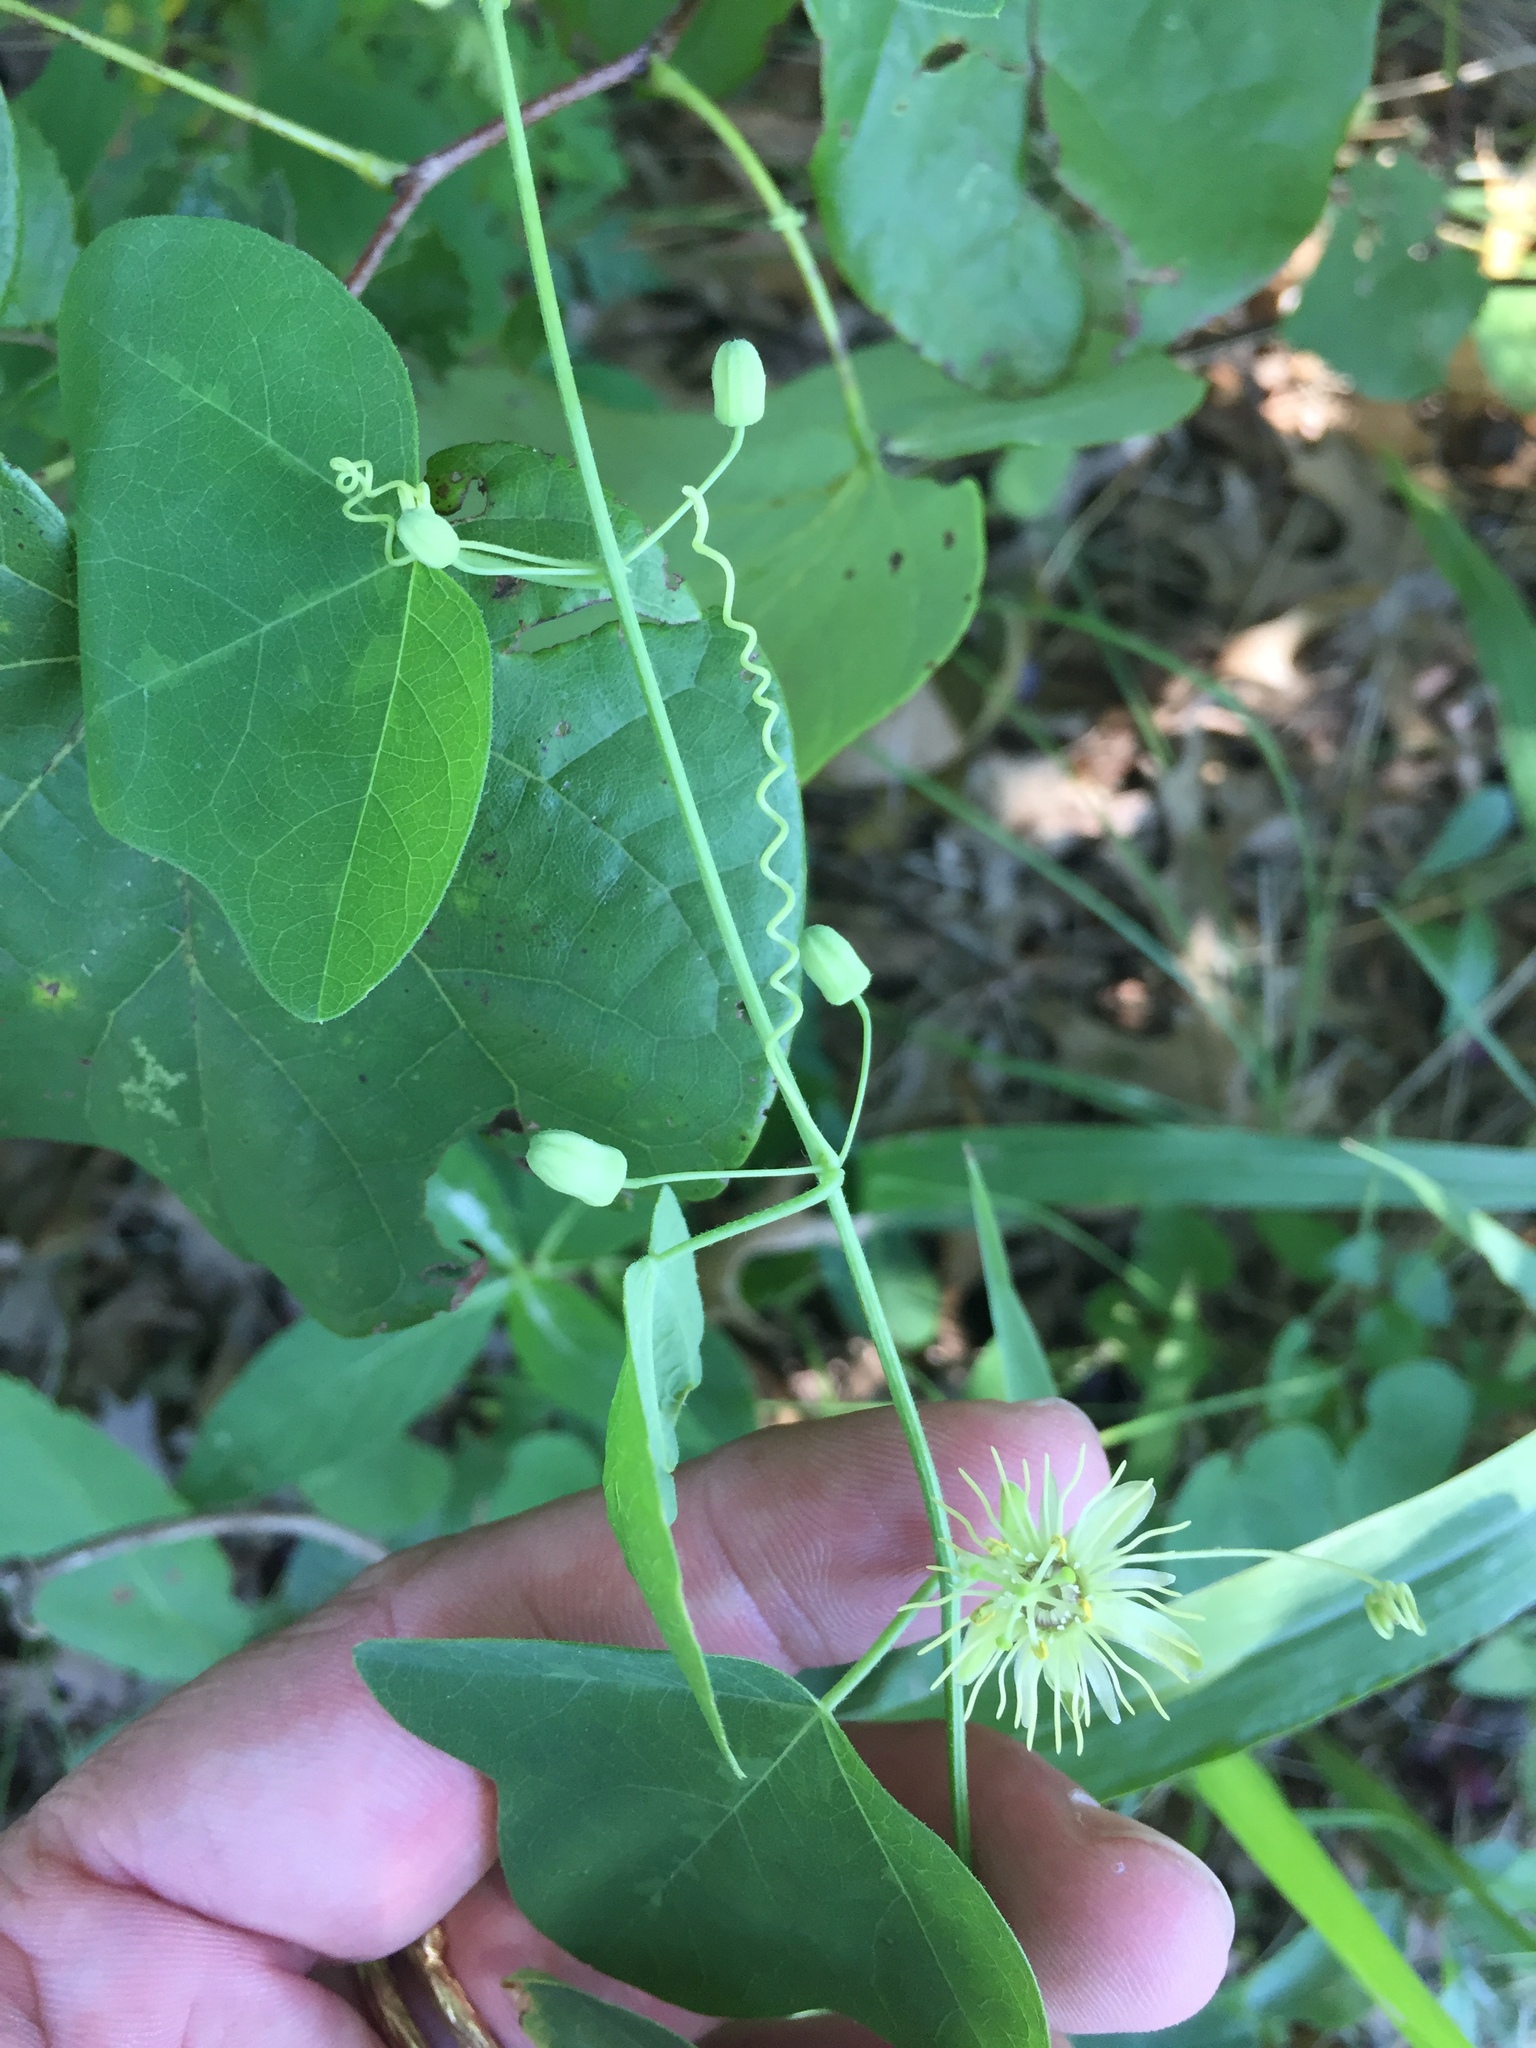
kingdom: Plantae
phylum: Tracheophyta
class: Magnoliopsida
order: Malpighiales
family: Passifloraceae
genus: Passiflora
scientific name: Passiflora lutea
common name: Yellow passionflower
